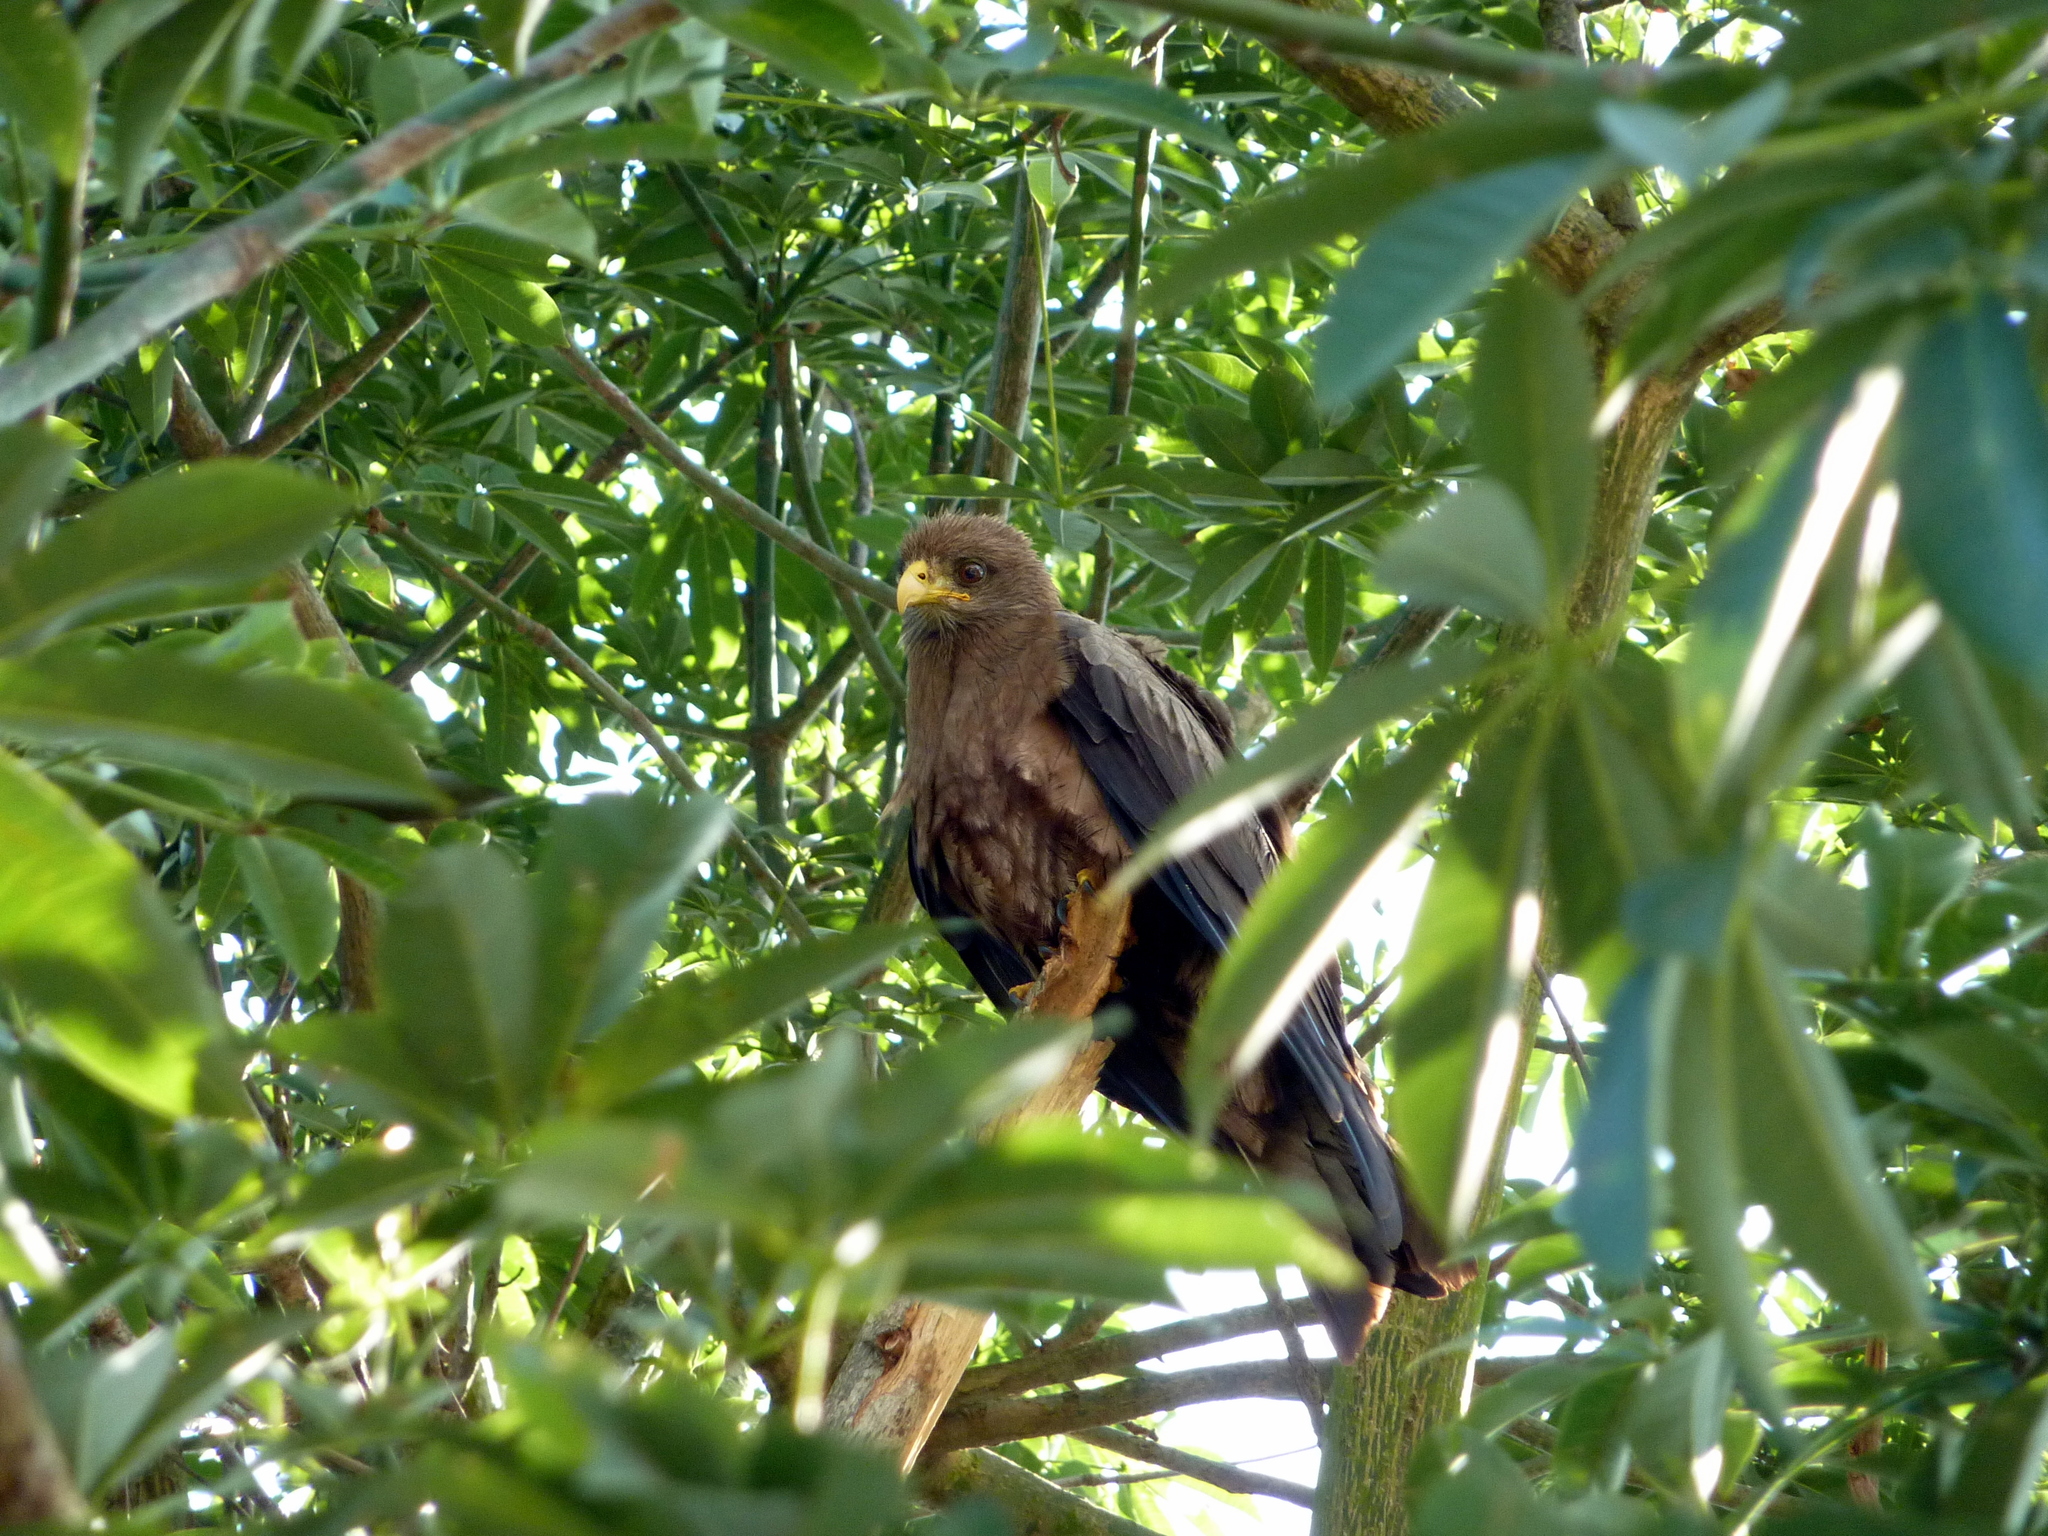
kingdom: Animalia
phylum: Chordata
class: Aves
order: Accipitriformes
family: Accipitridae
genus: Milvus
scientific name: Milvus migrans
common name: Black kite
